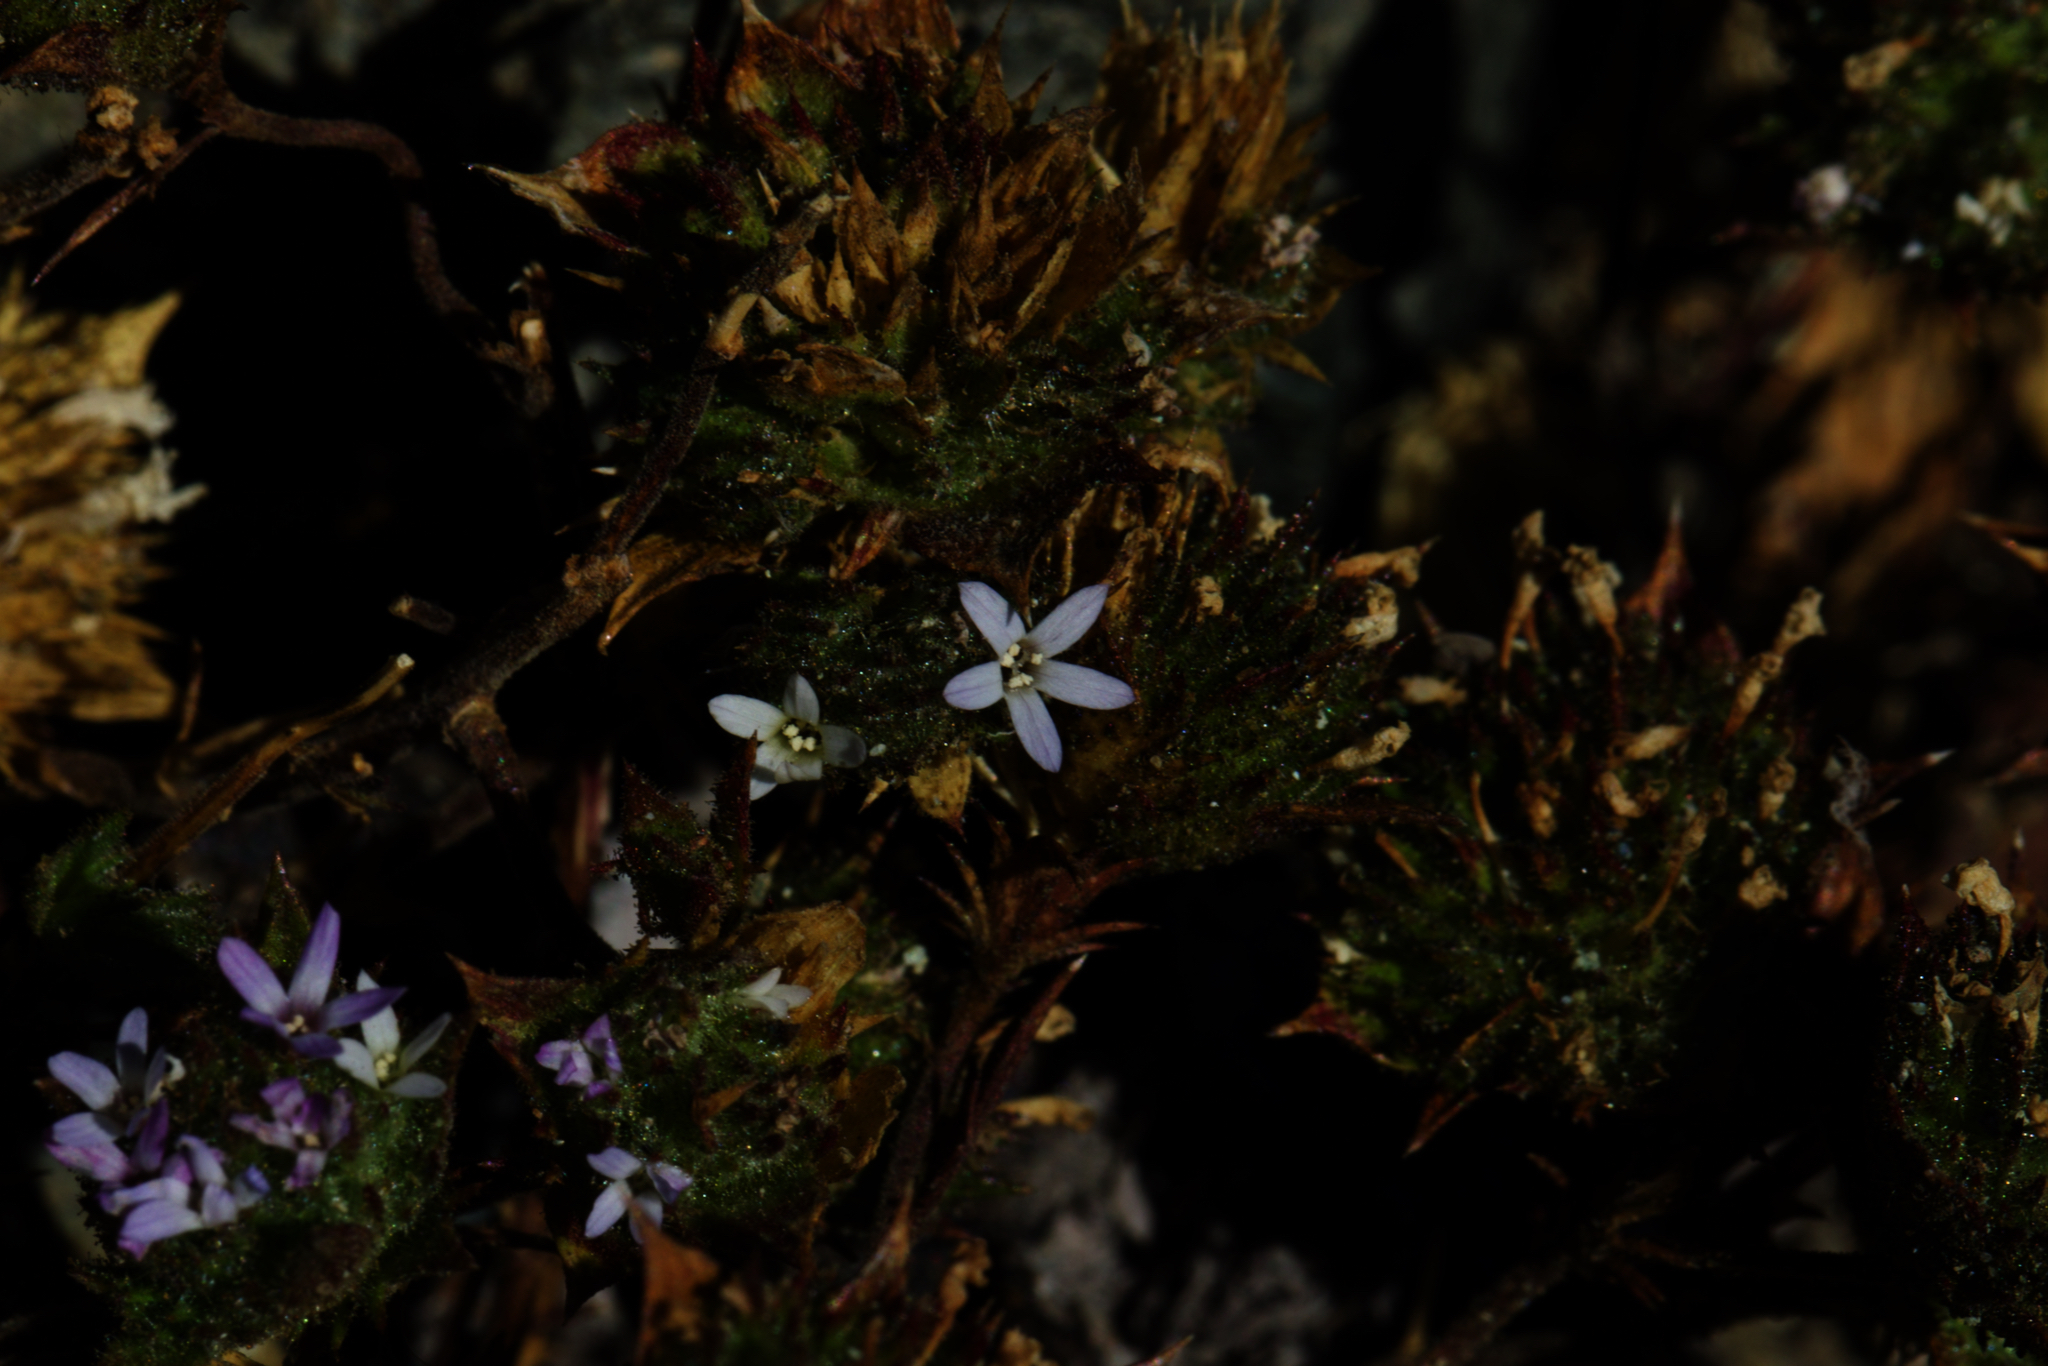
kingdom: Plantae
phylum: Tracheophyta
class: Magnoliopsida
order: Ericales
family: Polemoniaceae
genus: Navarretia
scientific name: Navarretia rosulata
